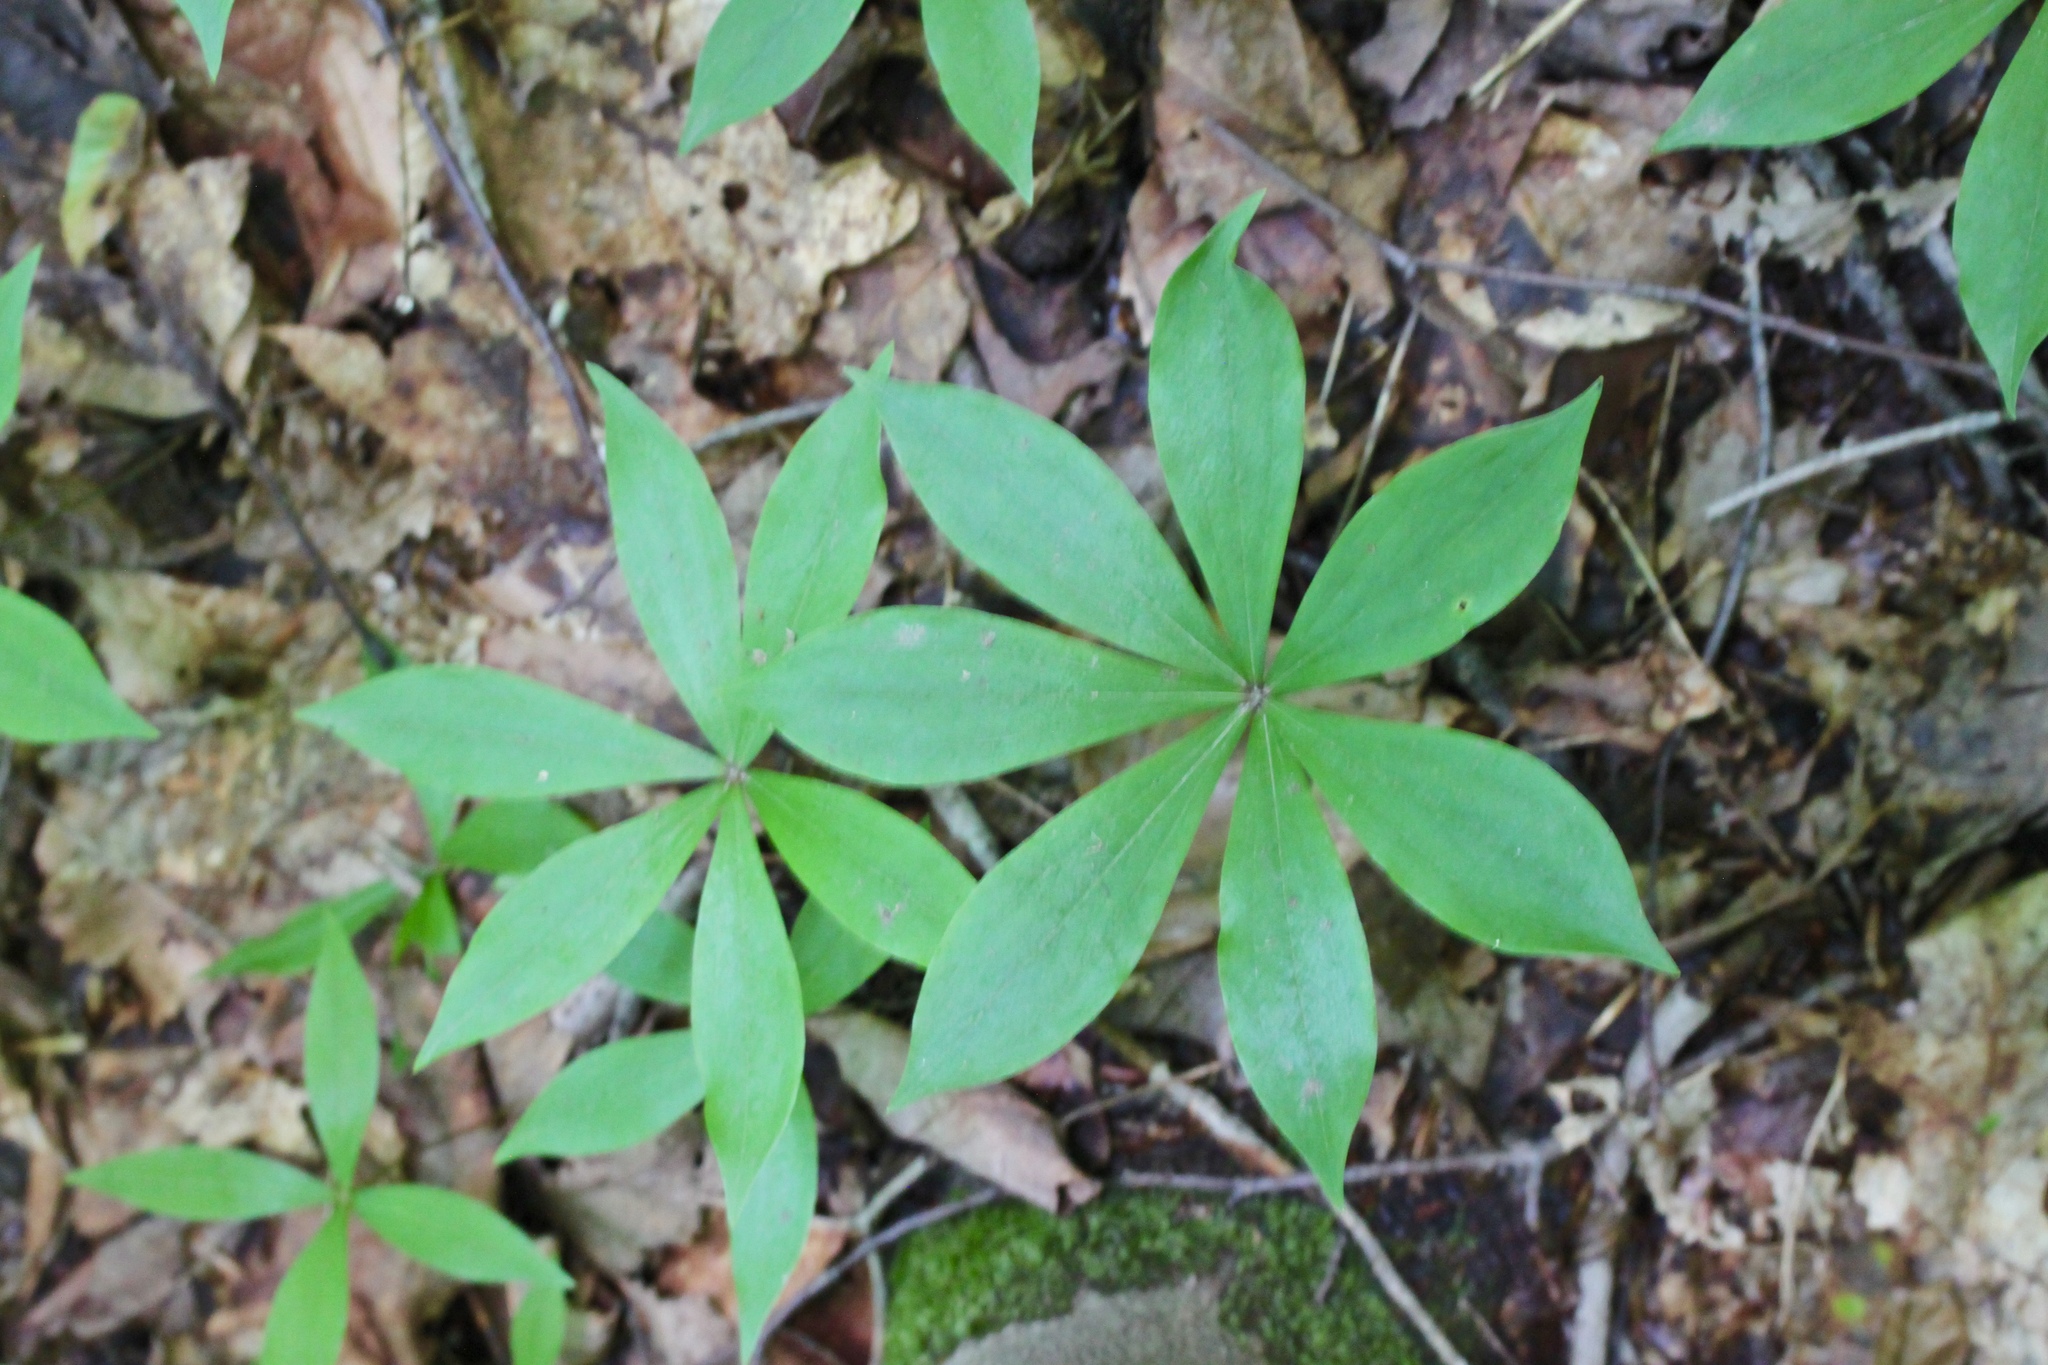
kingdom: Plantae
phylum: Tracheophyta
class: Liliopsida
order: Liliales
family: Liliaceae
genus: Medeola
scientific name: Medeola virginiana
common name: Indian cucumber-root
